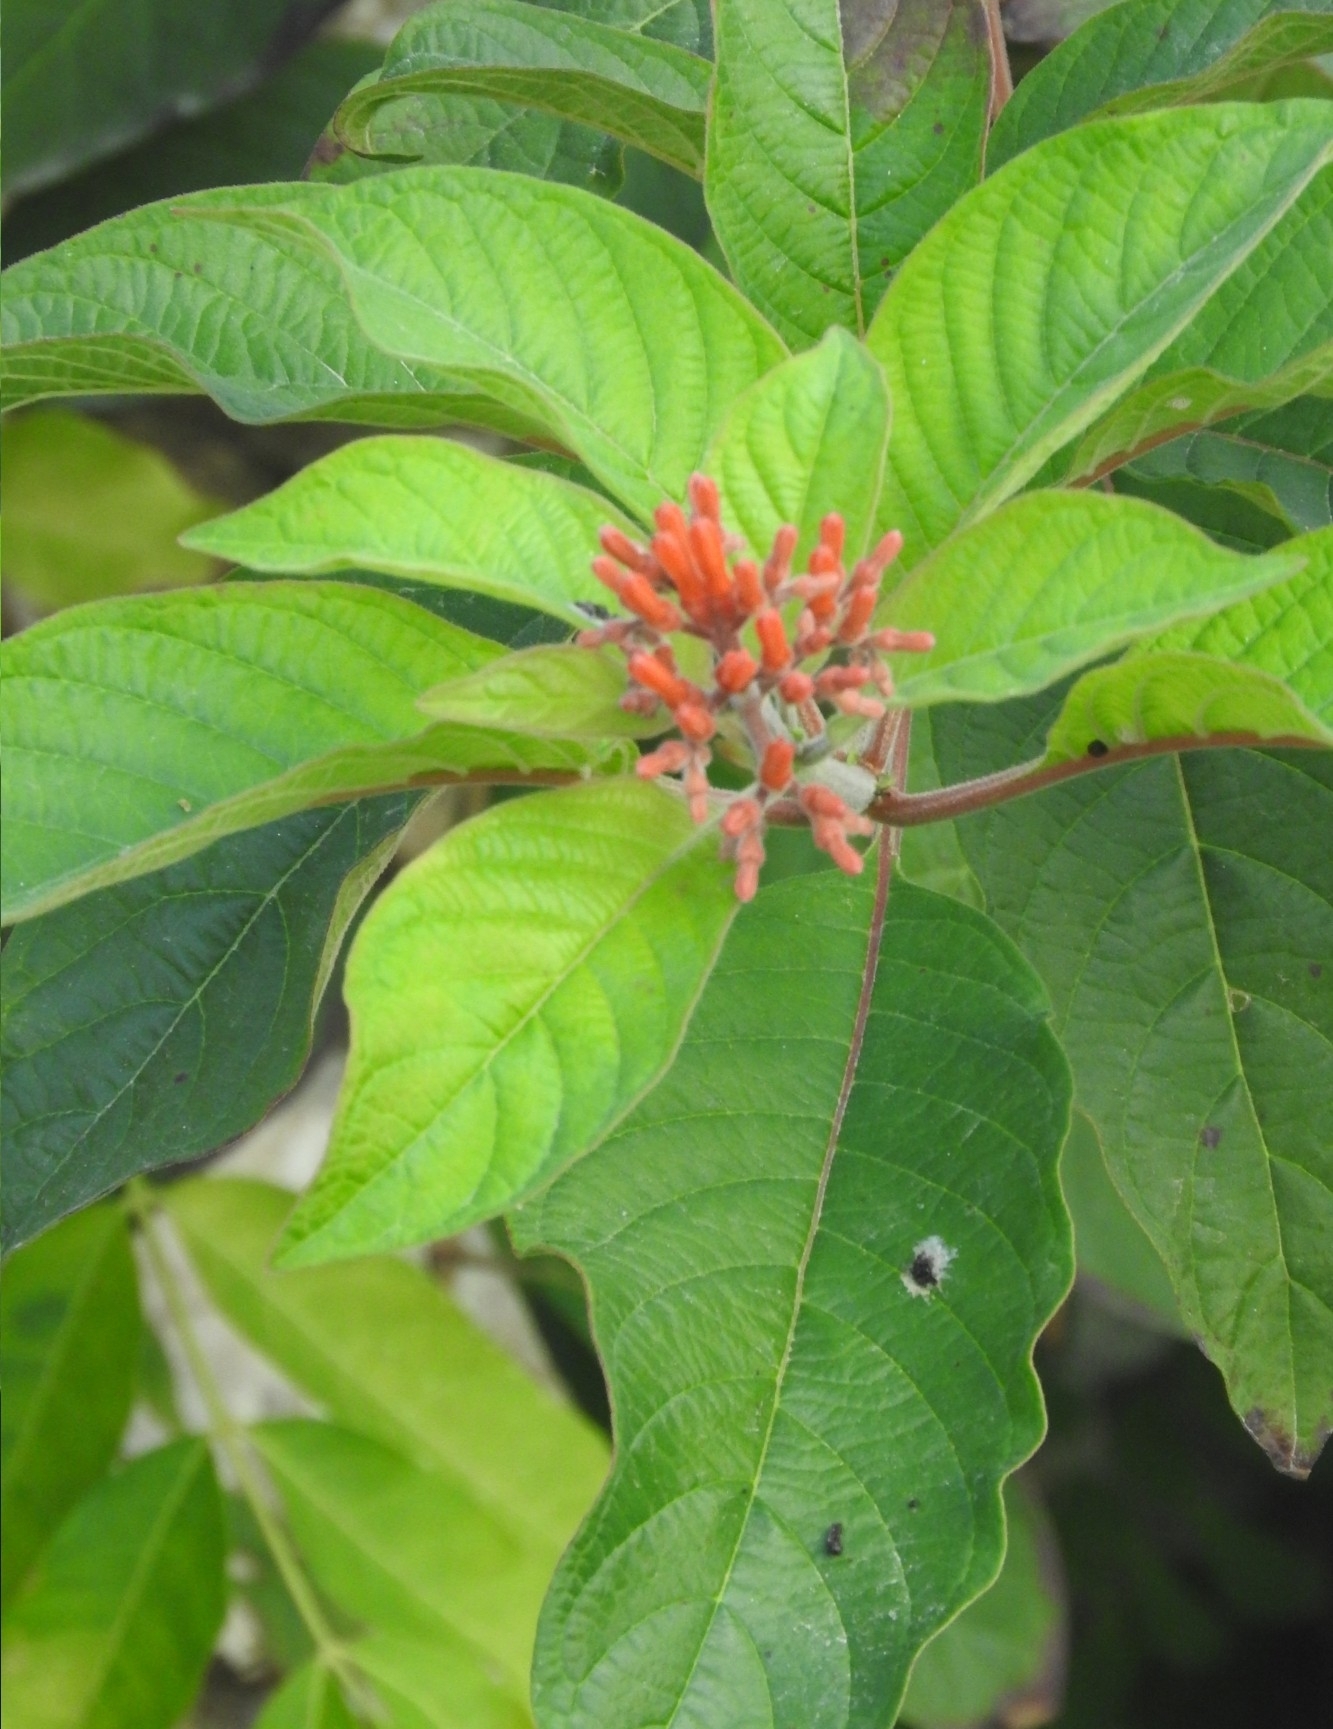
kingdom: Plantae
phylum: Tracheophyta
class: Magnoliopsida
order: Gentianales
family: Rubiaceae
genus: Hamelia
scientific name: Hamelia patens
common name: Redhead
